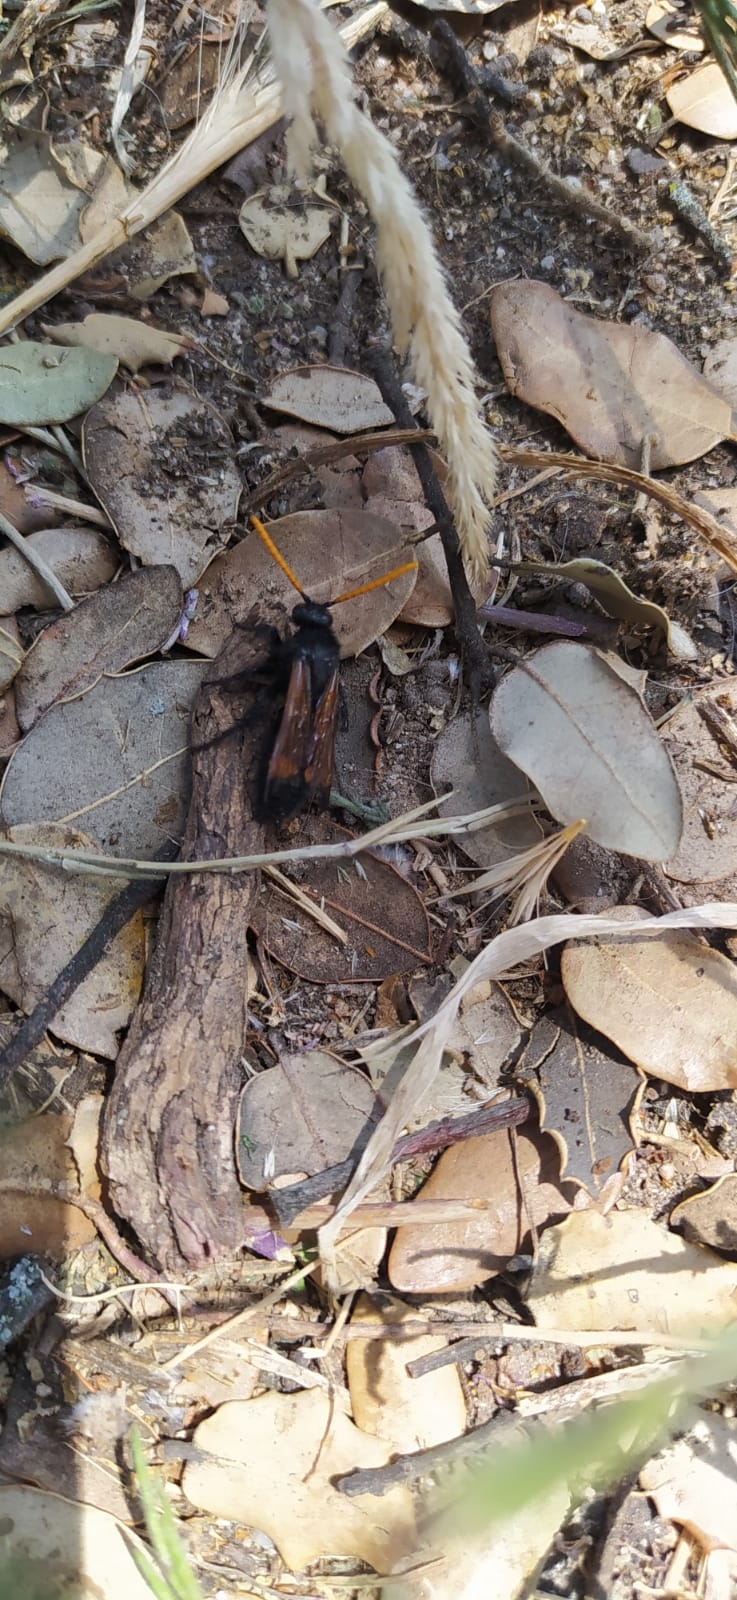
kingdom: Animalia
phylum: Arthropoda
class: Insecta
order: Hymenoptera
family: Scoliidae
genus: Megascolia
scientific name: Megascolia bidens
